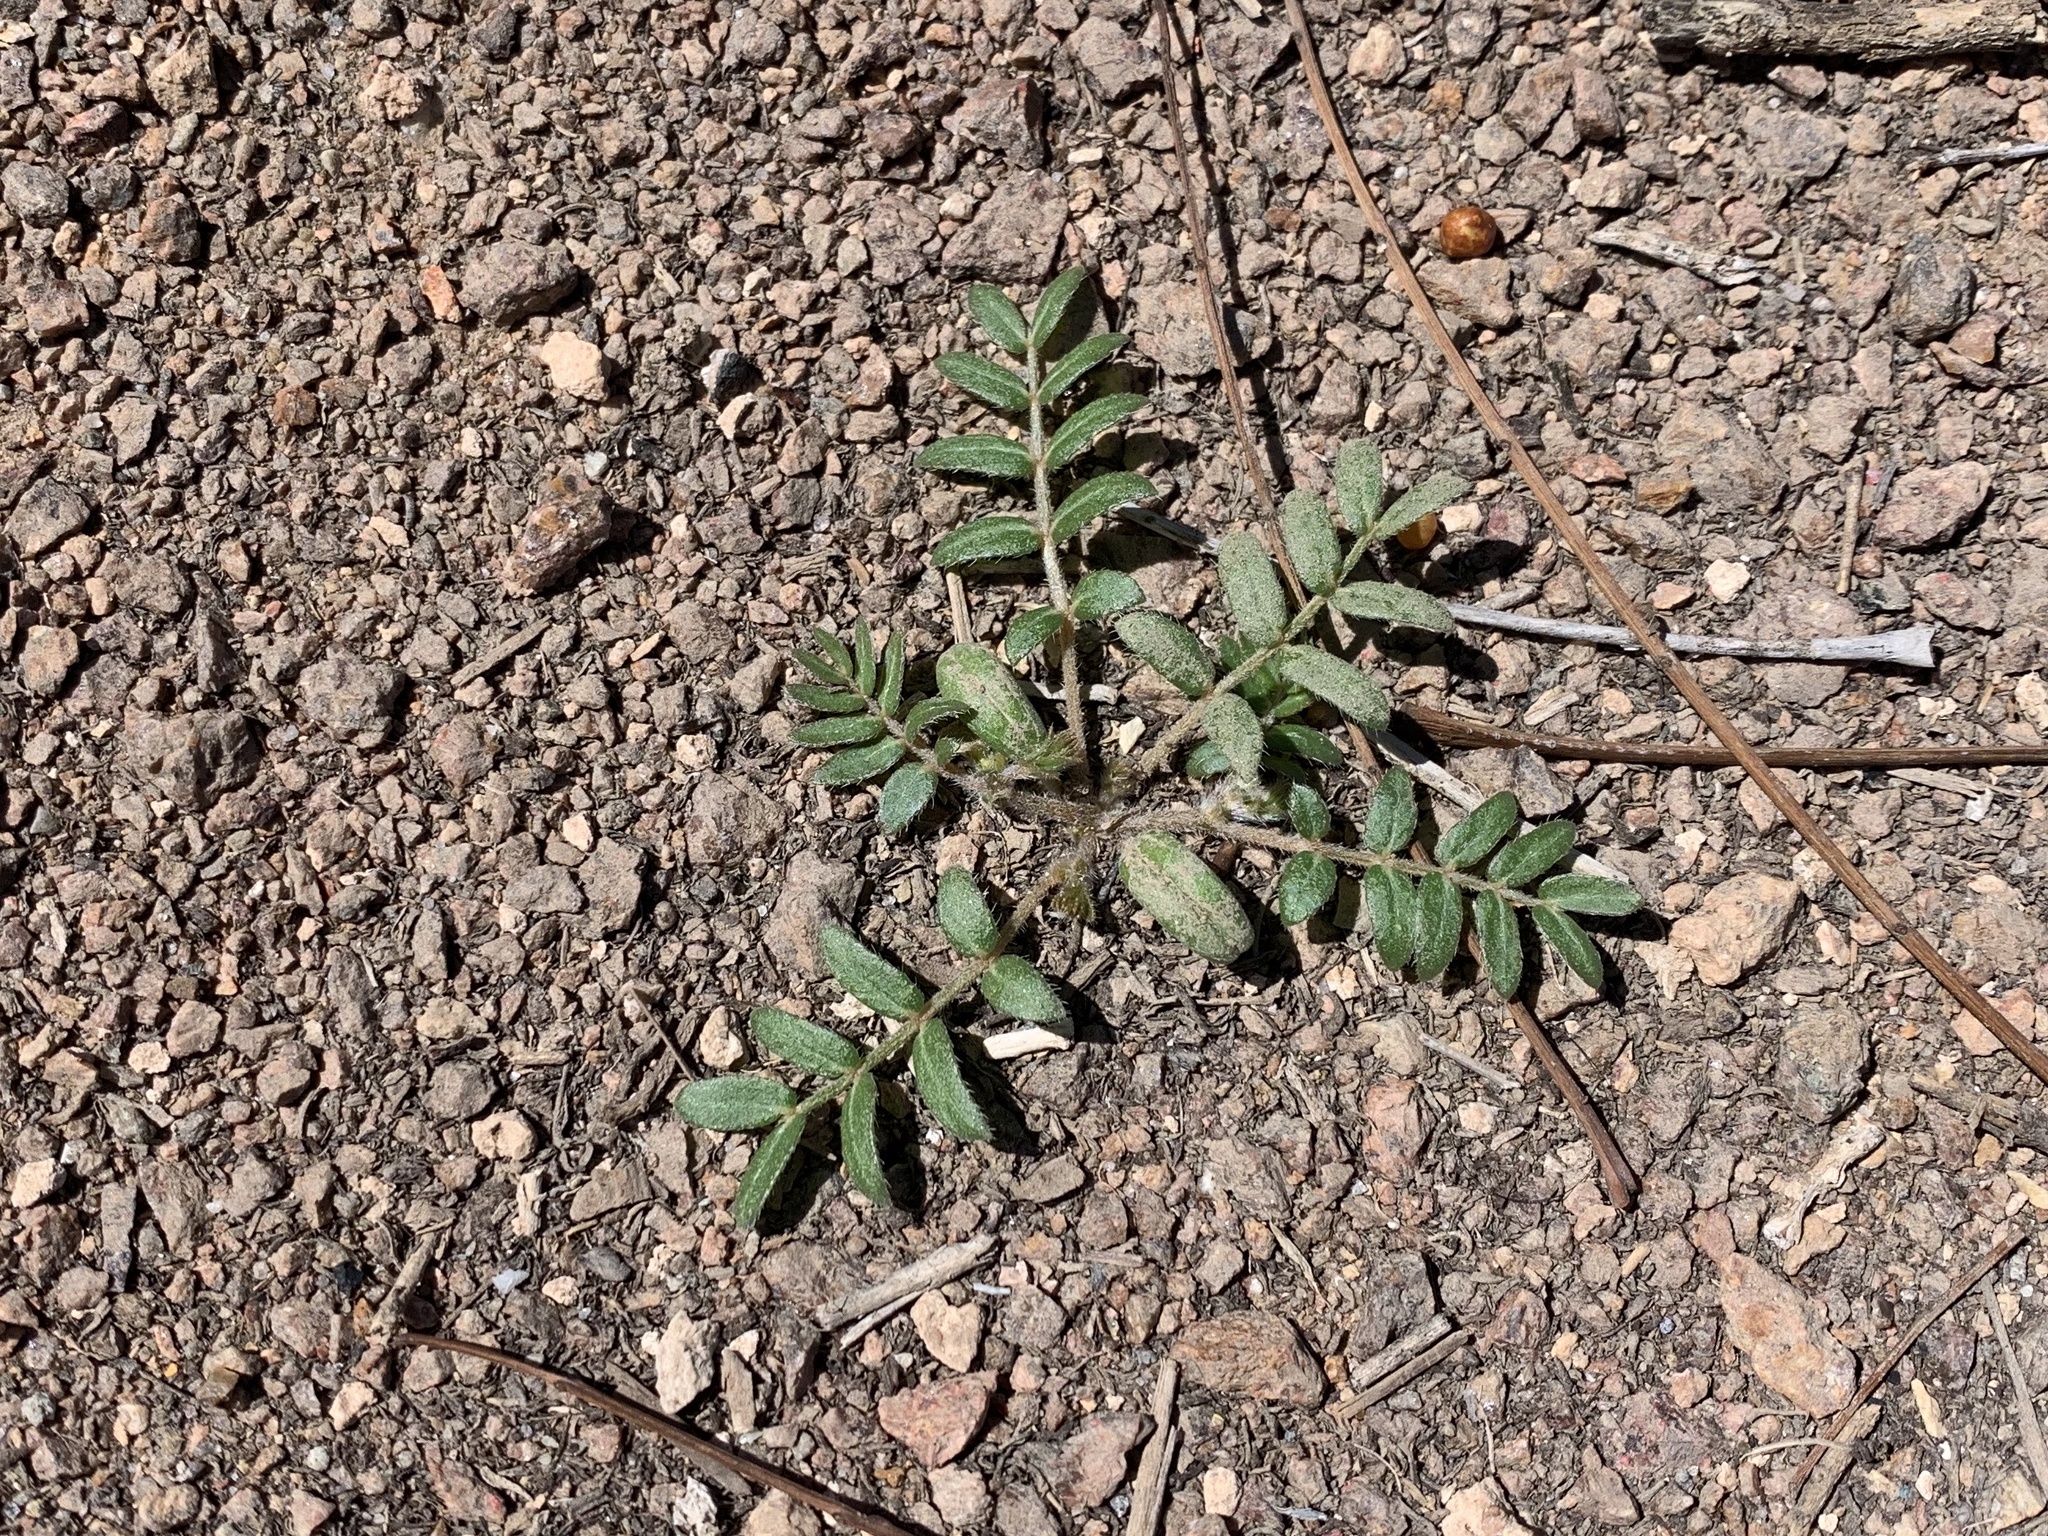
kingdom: Plantae
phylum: Tracheophyta
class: Magnoliopsida
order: Zygophyllales
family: Zygophyllaceae
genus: Tribulus
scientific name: Tribulus terrestris
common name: Puncturevine
